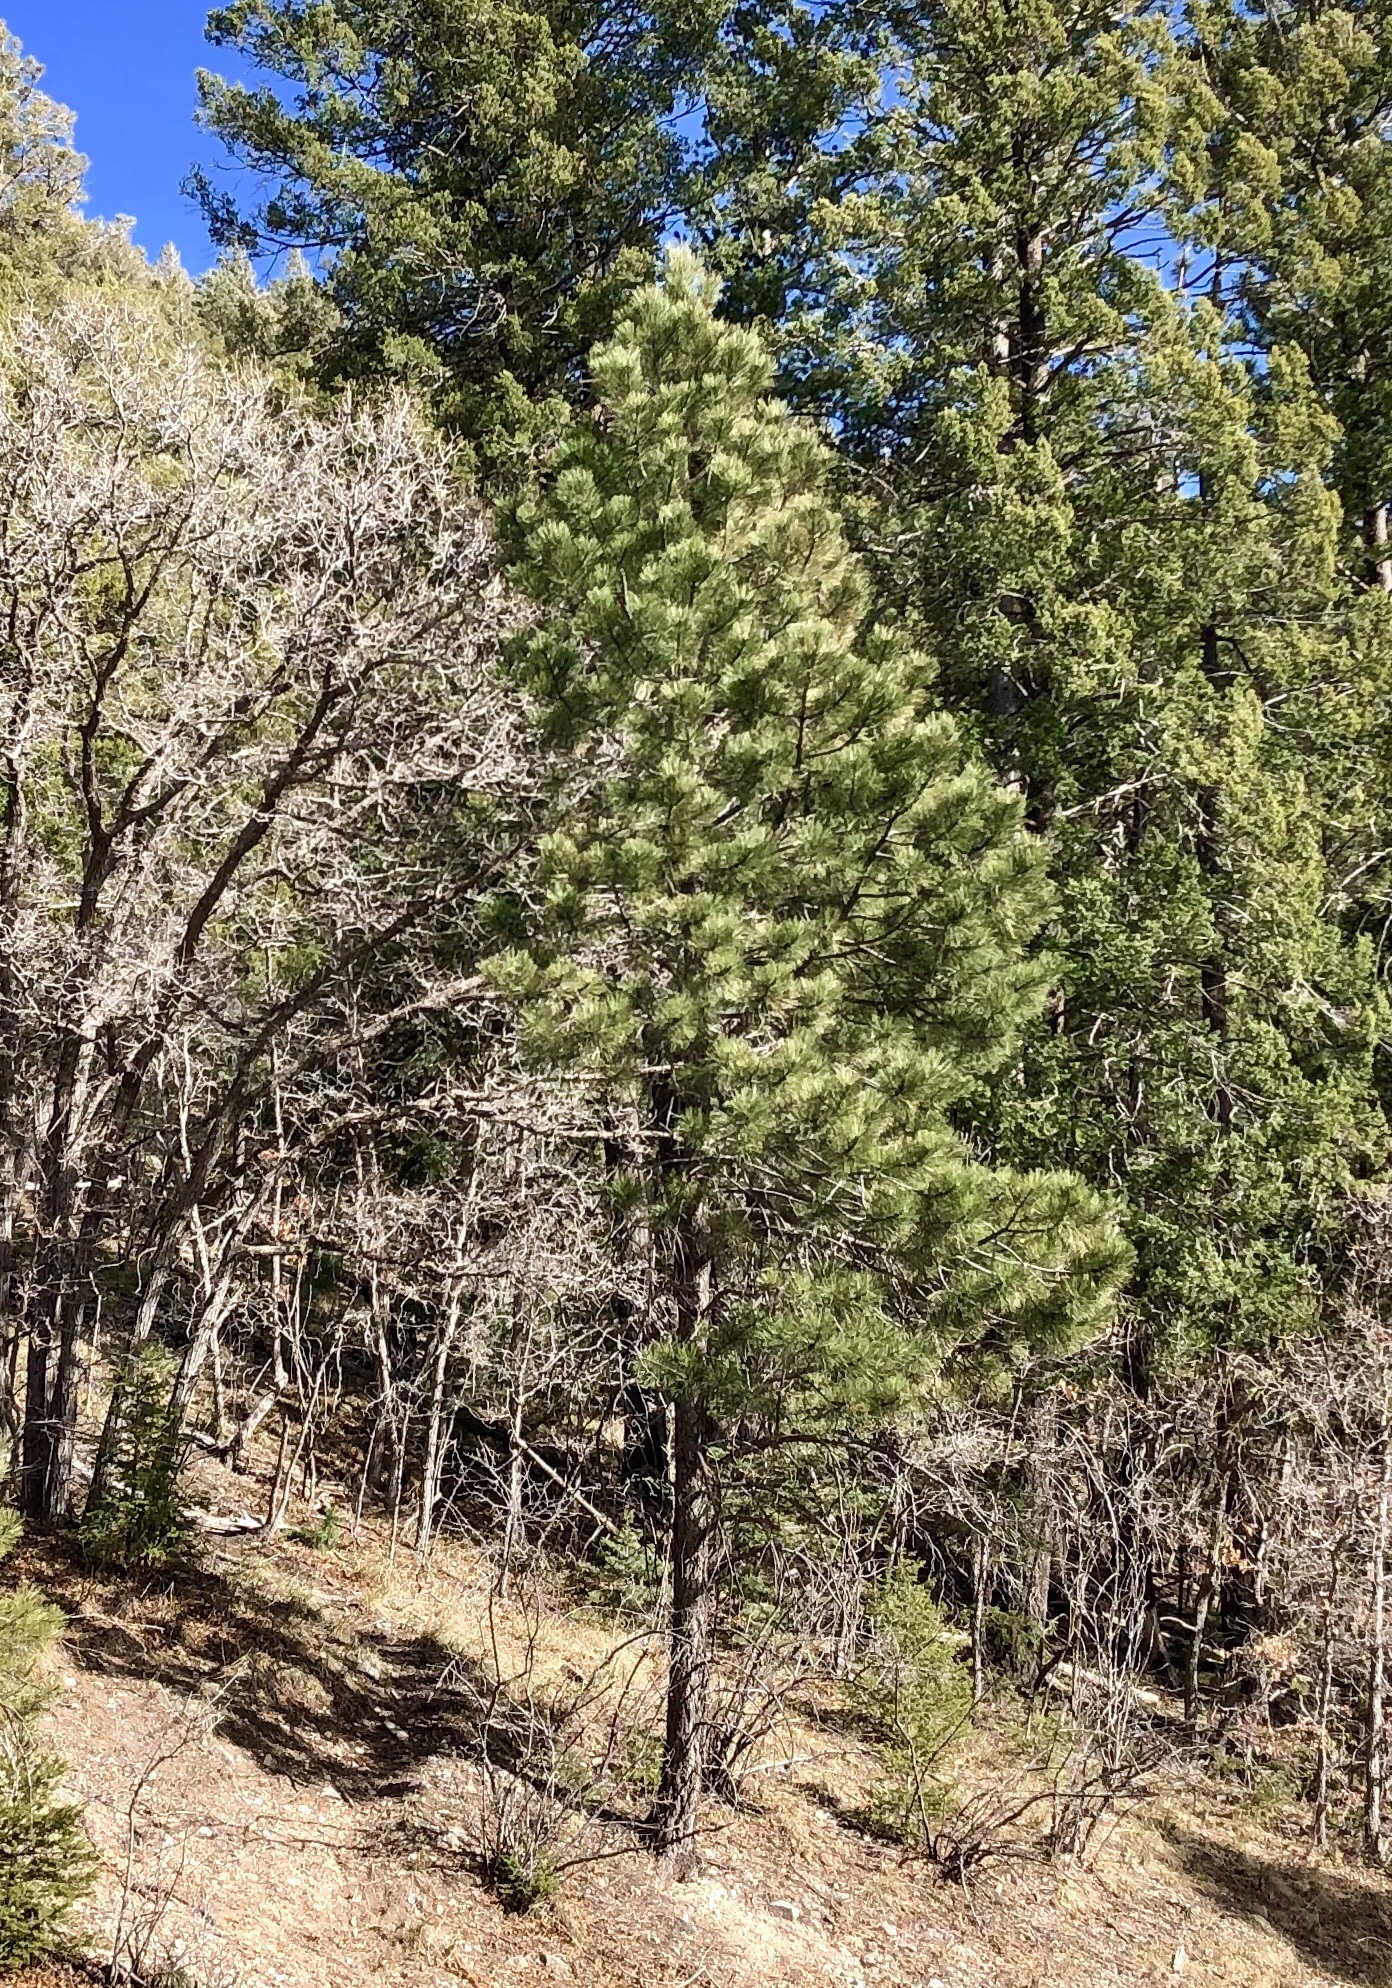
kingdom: Plantae
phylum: Tracheophyta
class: Pinopsida
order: Pinales
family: Pinaceae
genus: Pinus
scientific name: Pinus ponderosa
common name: Western yellow-pine
